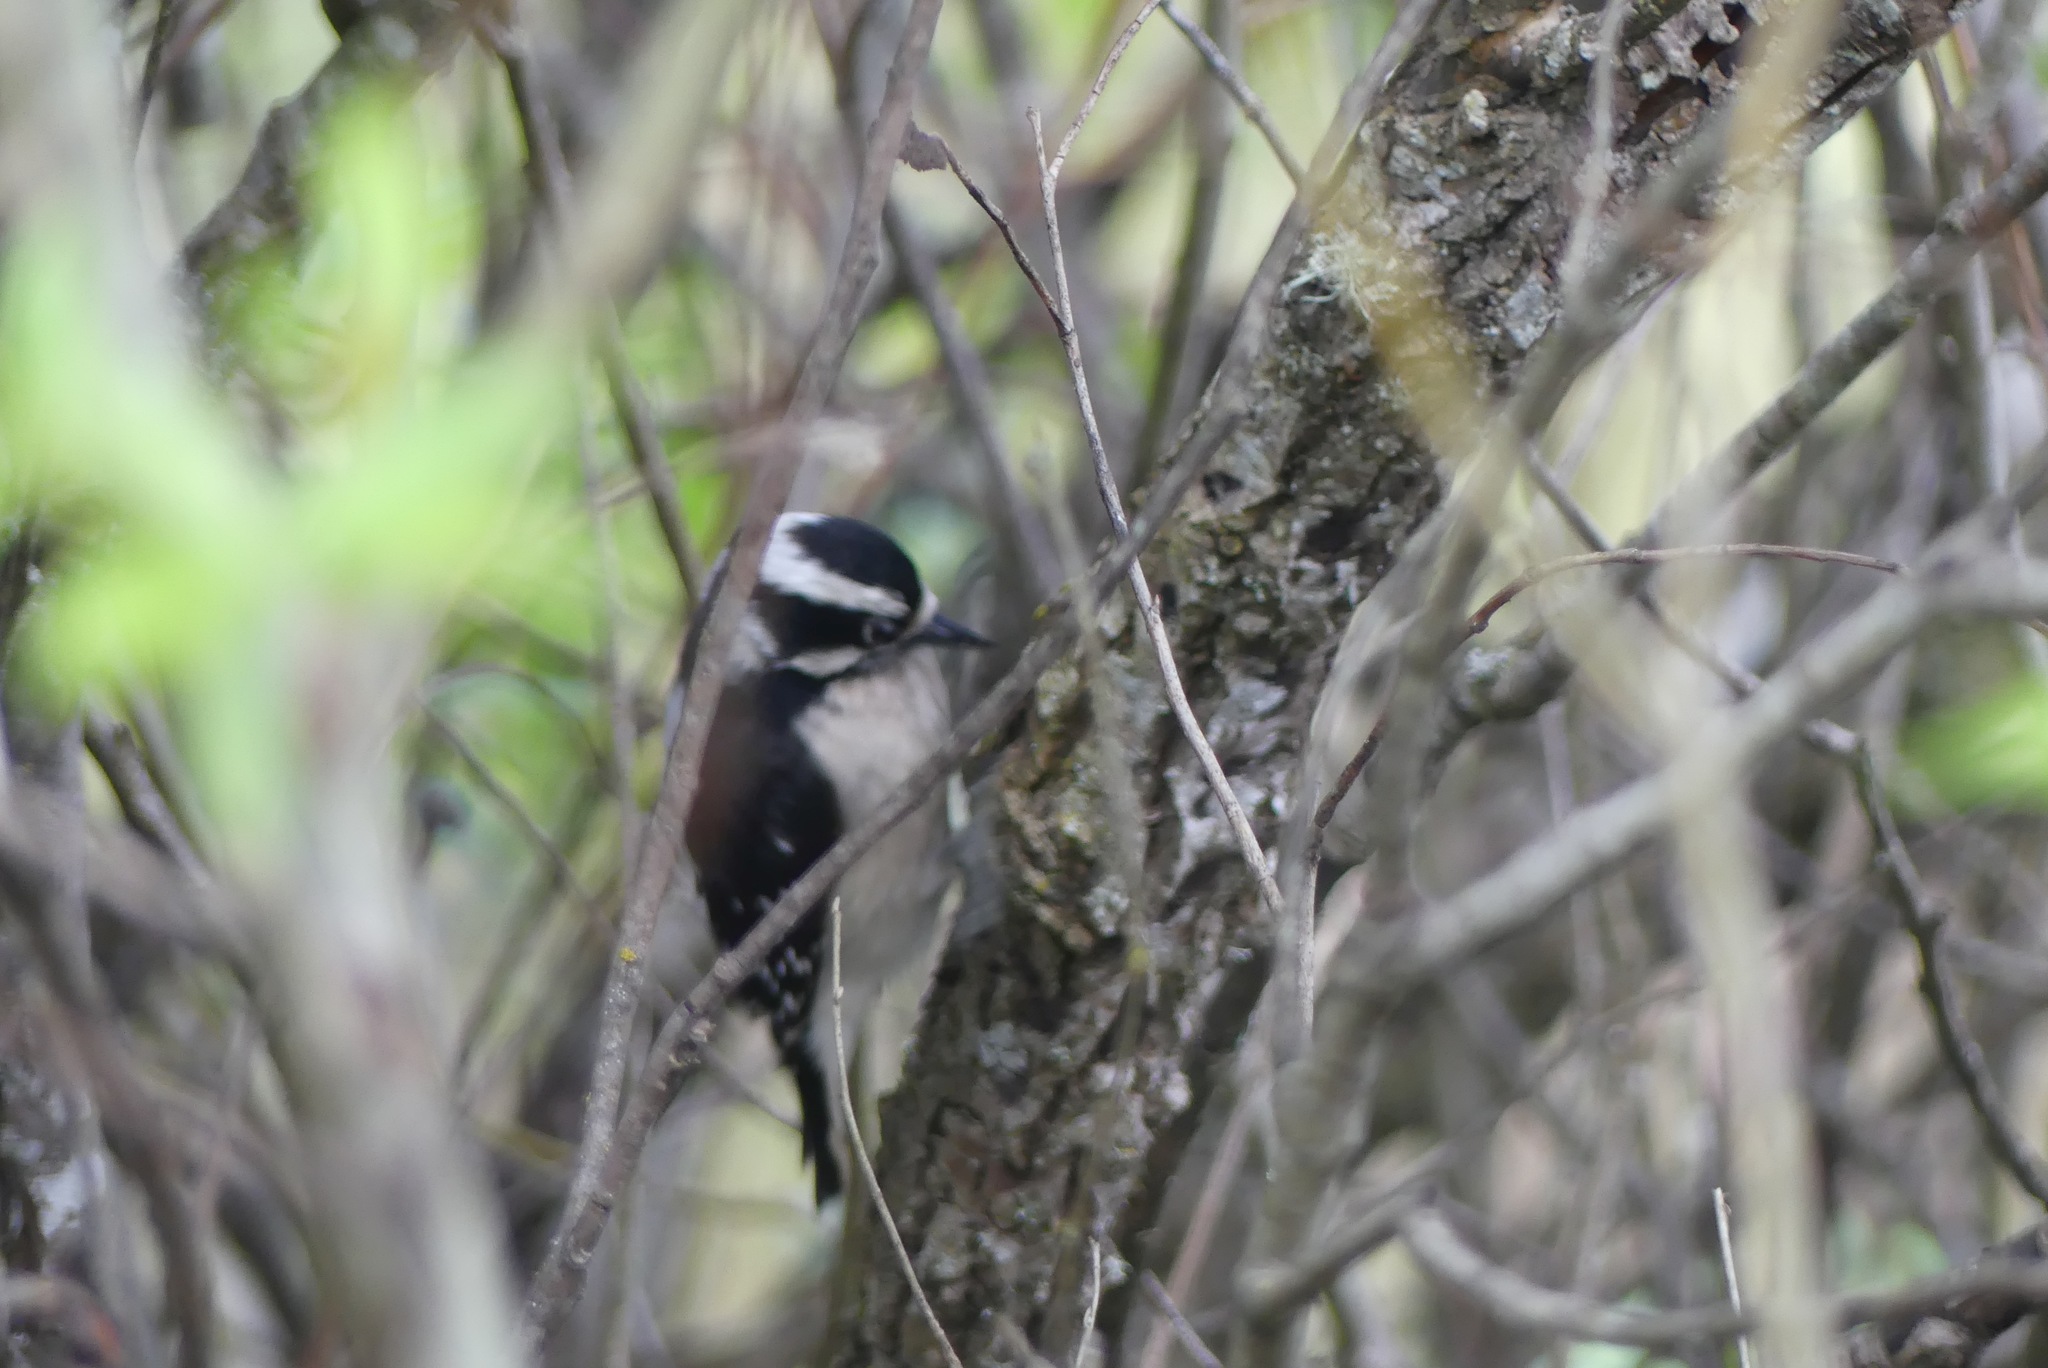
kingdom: Animalia
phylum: Chordata
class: Aves
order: Piciformes
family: Picidae
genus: Dryobates
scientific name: Dryobates pubescens
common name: Downy woodpecker
